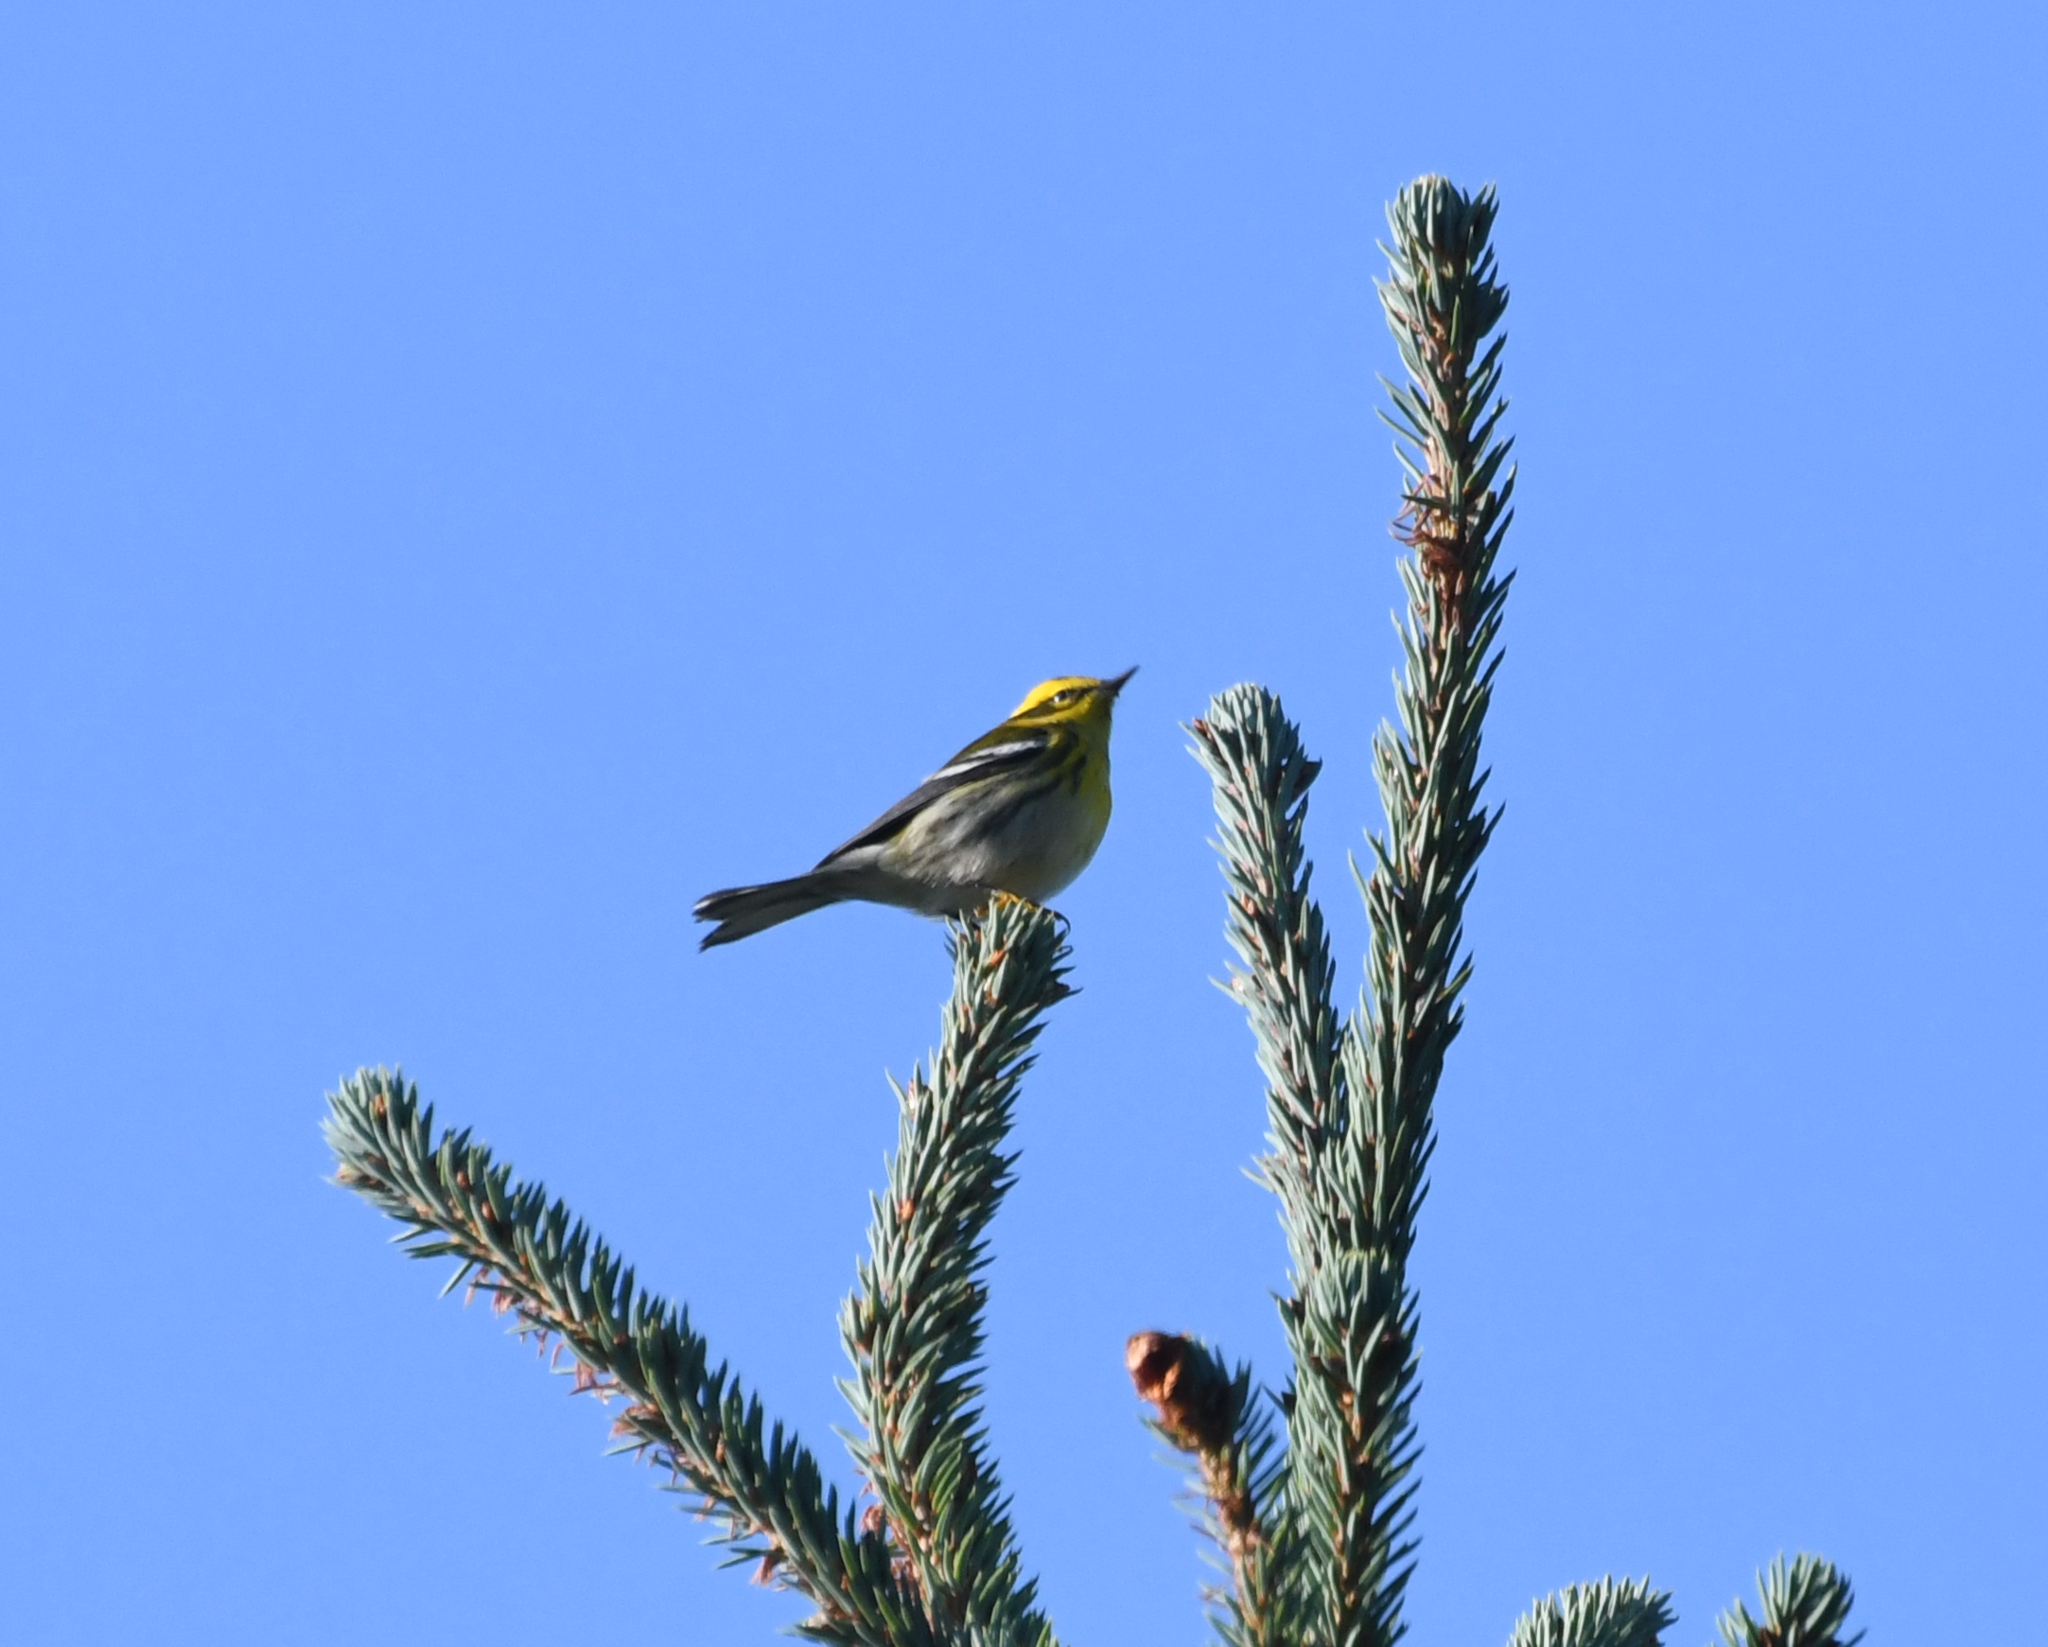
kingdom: Animalia
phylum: Chordata
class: Aves
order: Passeriformes
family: Parulidae
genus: Setophaga
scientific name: Setophaga townsendi
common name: Townsend's warbler
